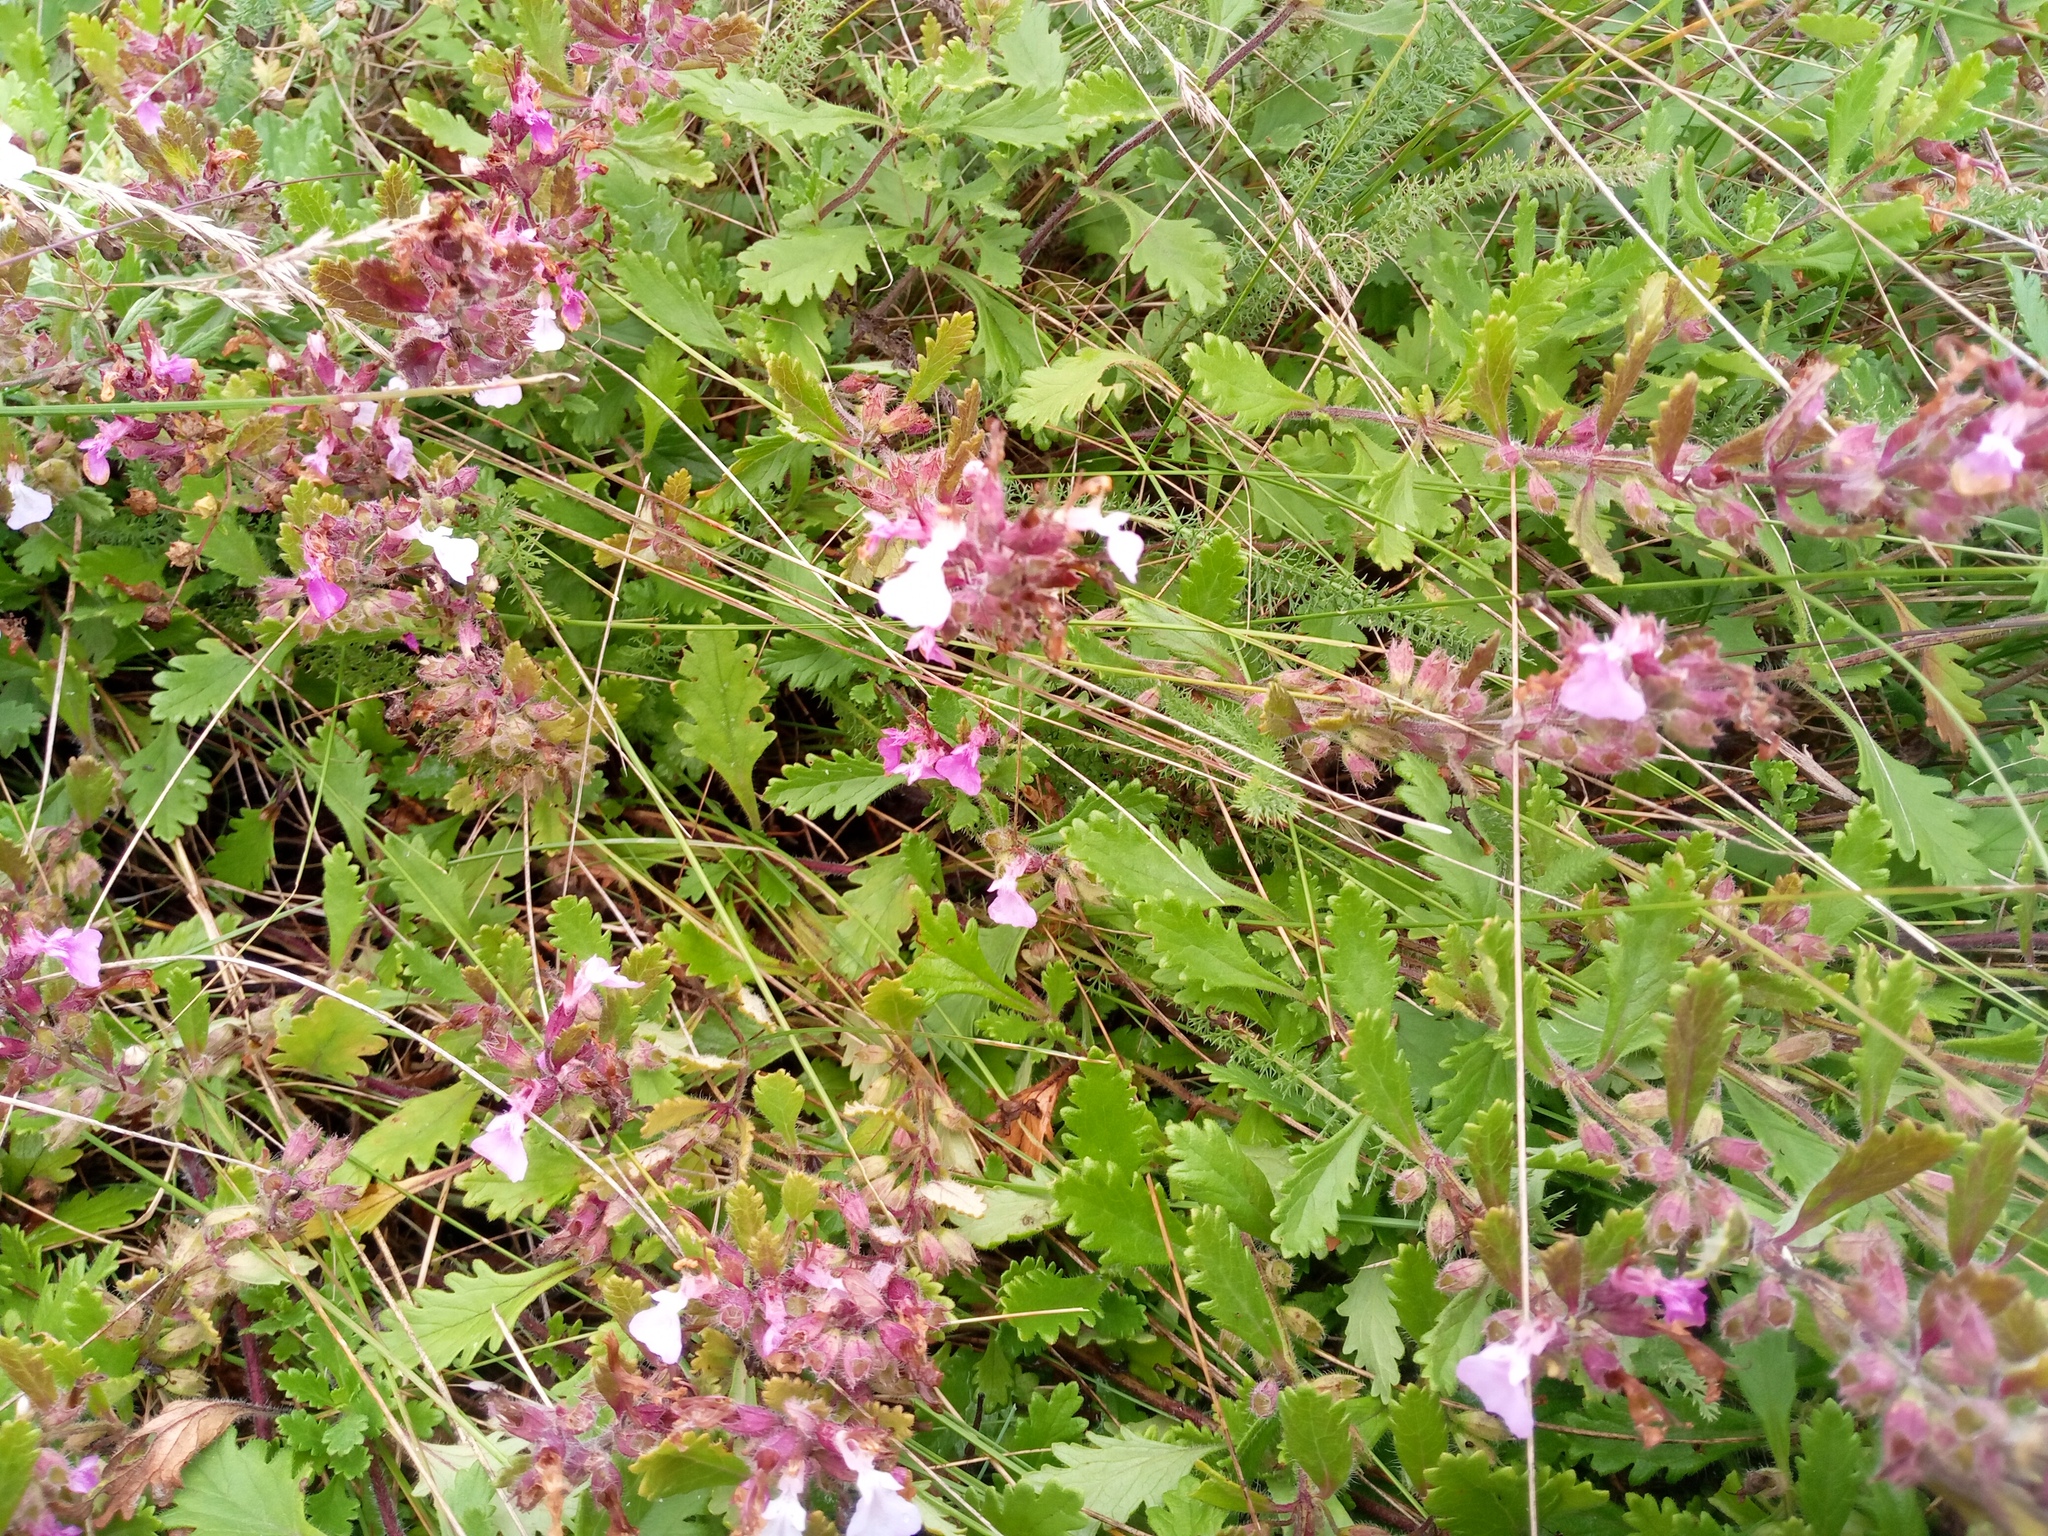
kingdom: Plantae
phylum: Tracheophyta
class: Magnoliopsida
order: Lamiales
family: Lamiaceae
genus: Teucrium
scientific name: Teucrium chamaedrys
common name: Wall germander
